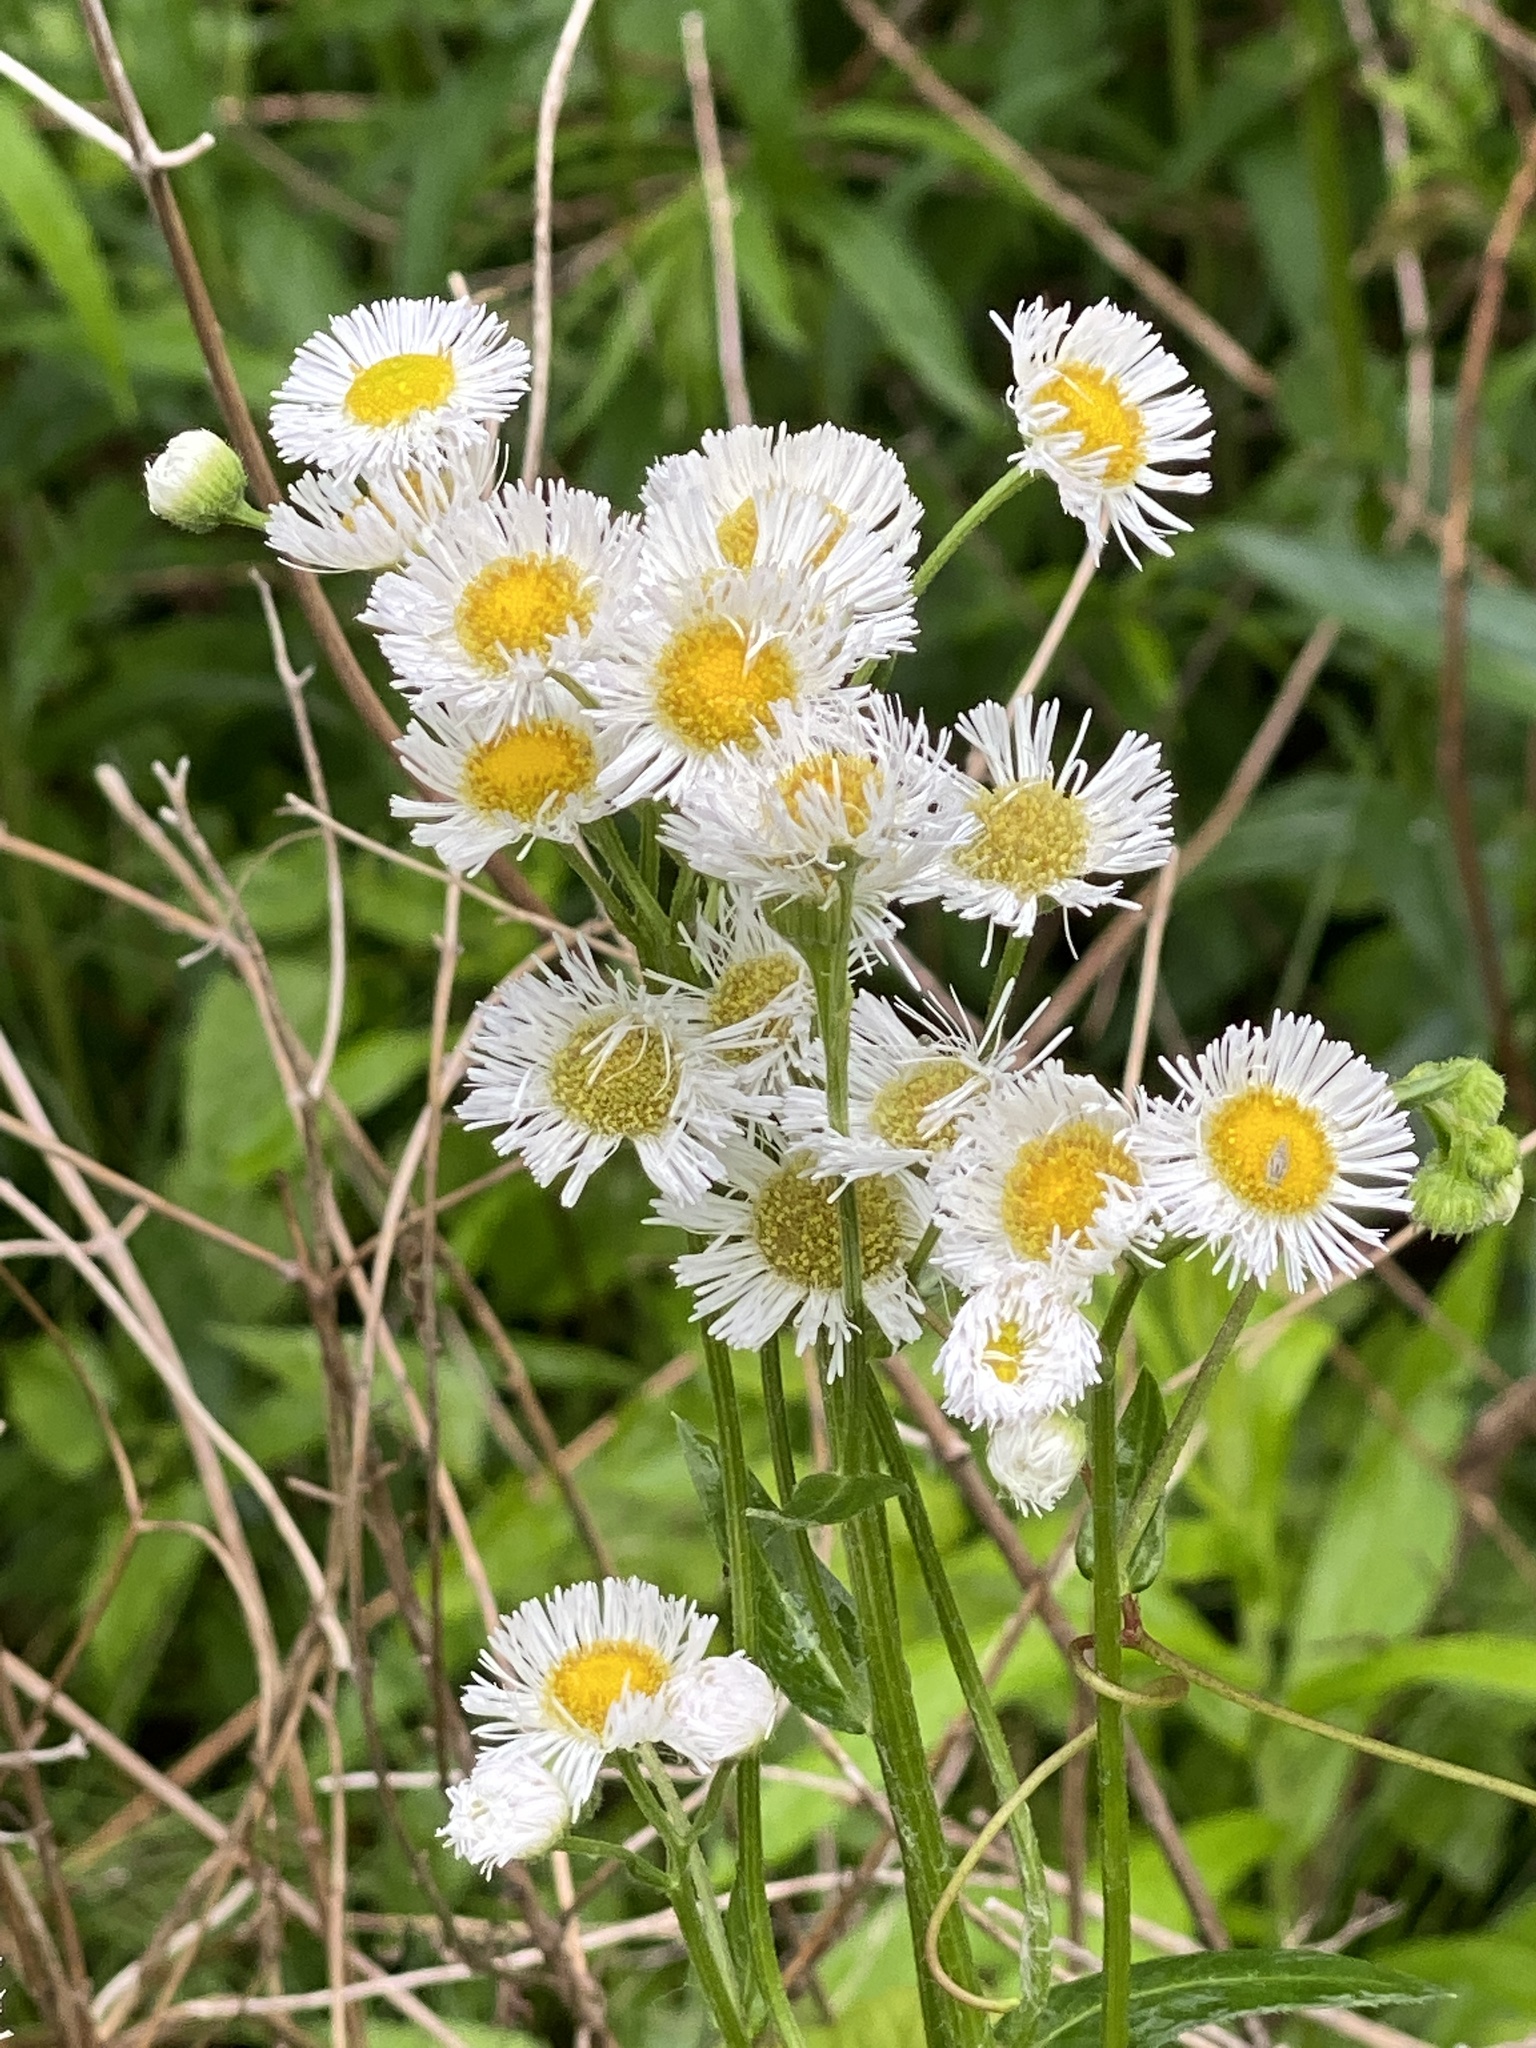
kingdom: Plantae
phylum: Tracheophyta
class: Magnoliopsida
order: Asterales
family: Asteraceae
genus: Erigeron
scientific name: Erigeron philadelphicus
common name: Robin's-plantain
